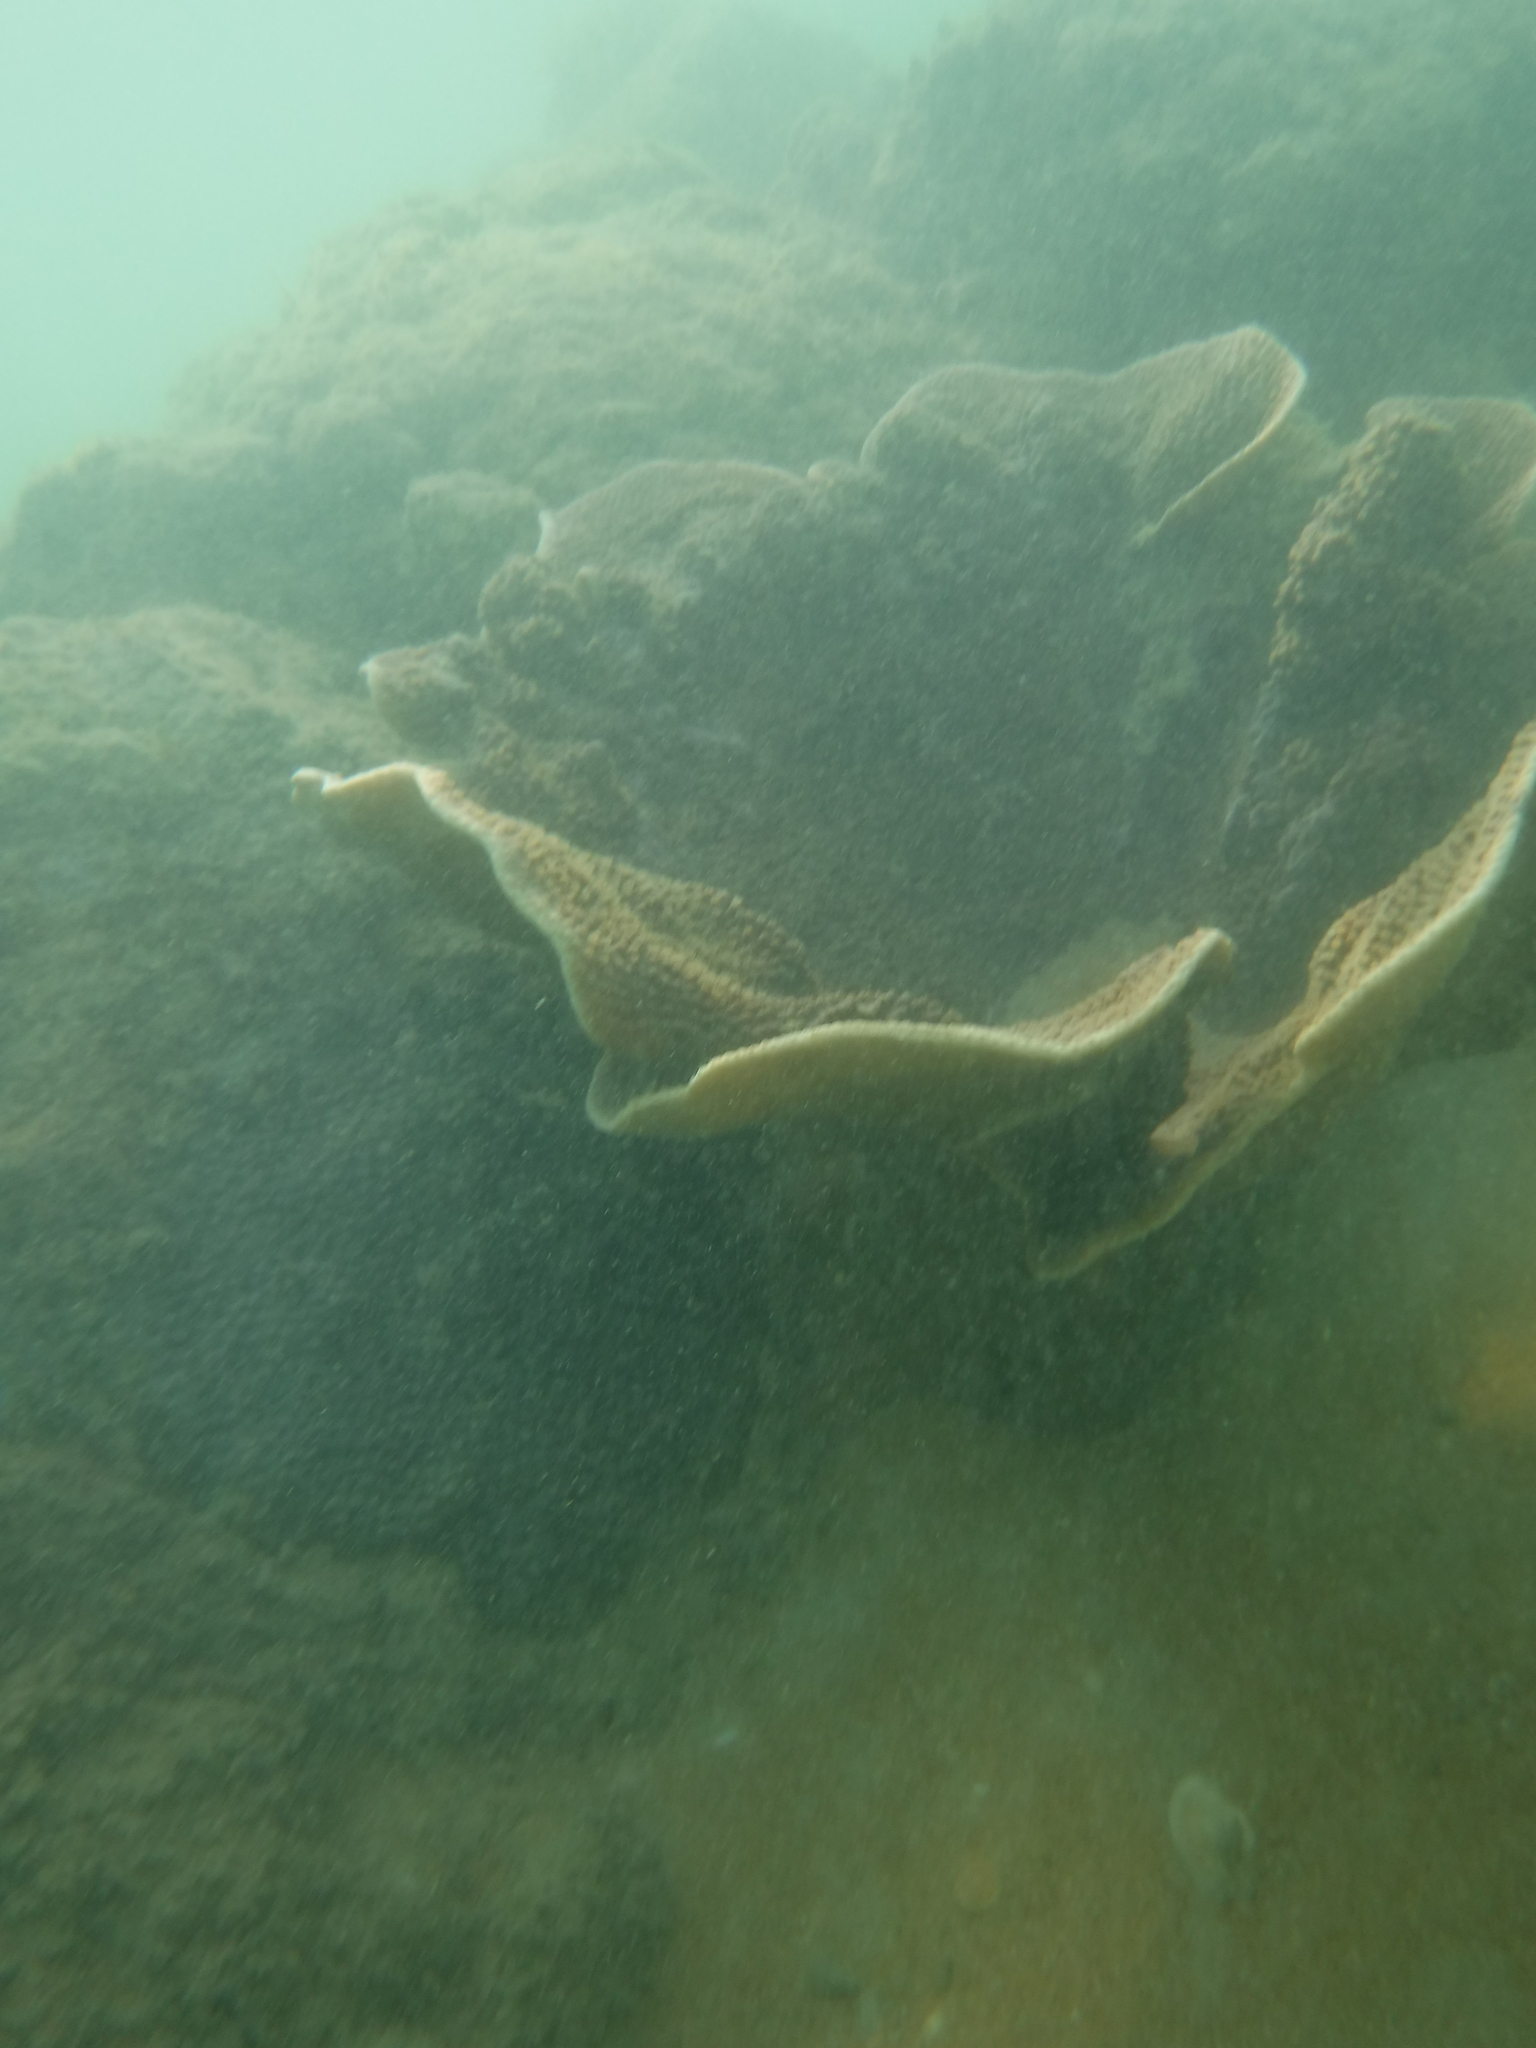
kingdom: Animalia
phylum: Cnidaria
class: Anthozoa
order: Scleractinia
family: Dendrophylliidae
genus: Turbinaria
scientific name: Turbinaria mesenterina
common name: Disc coral
